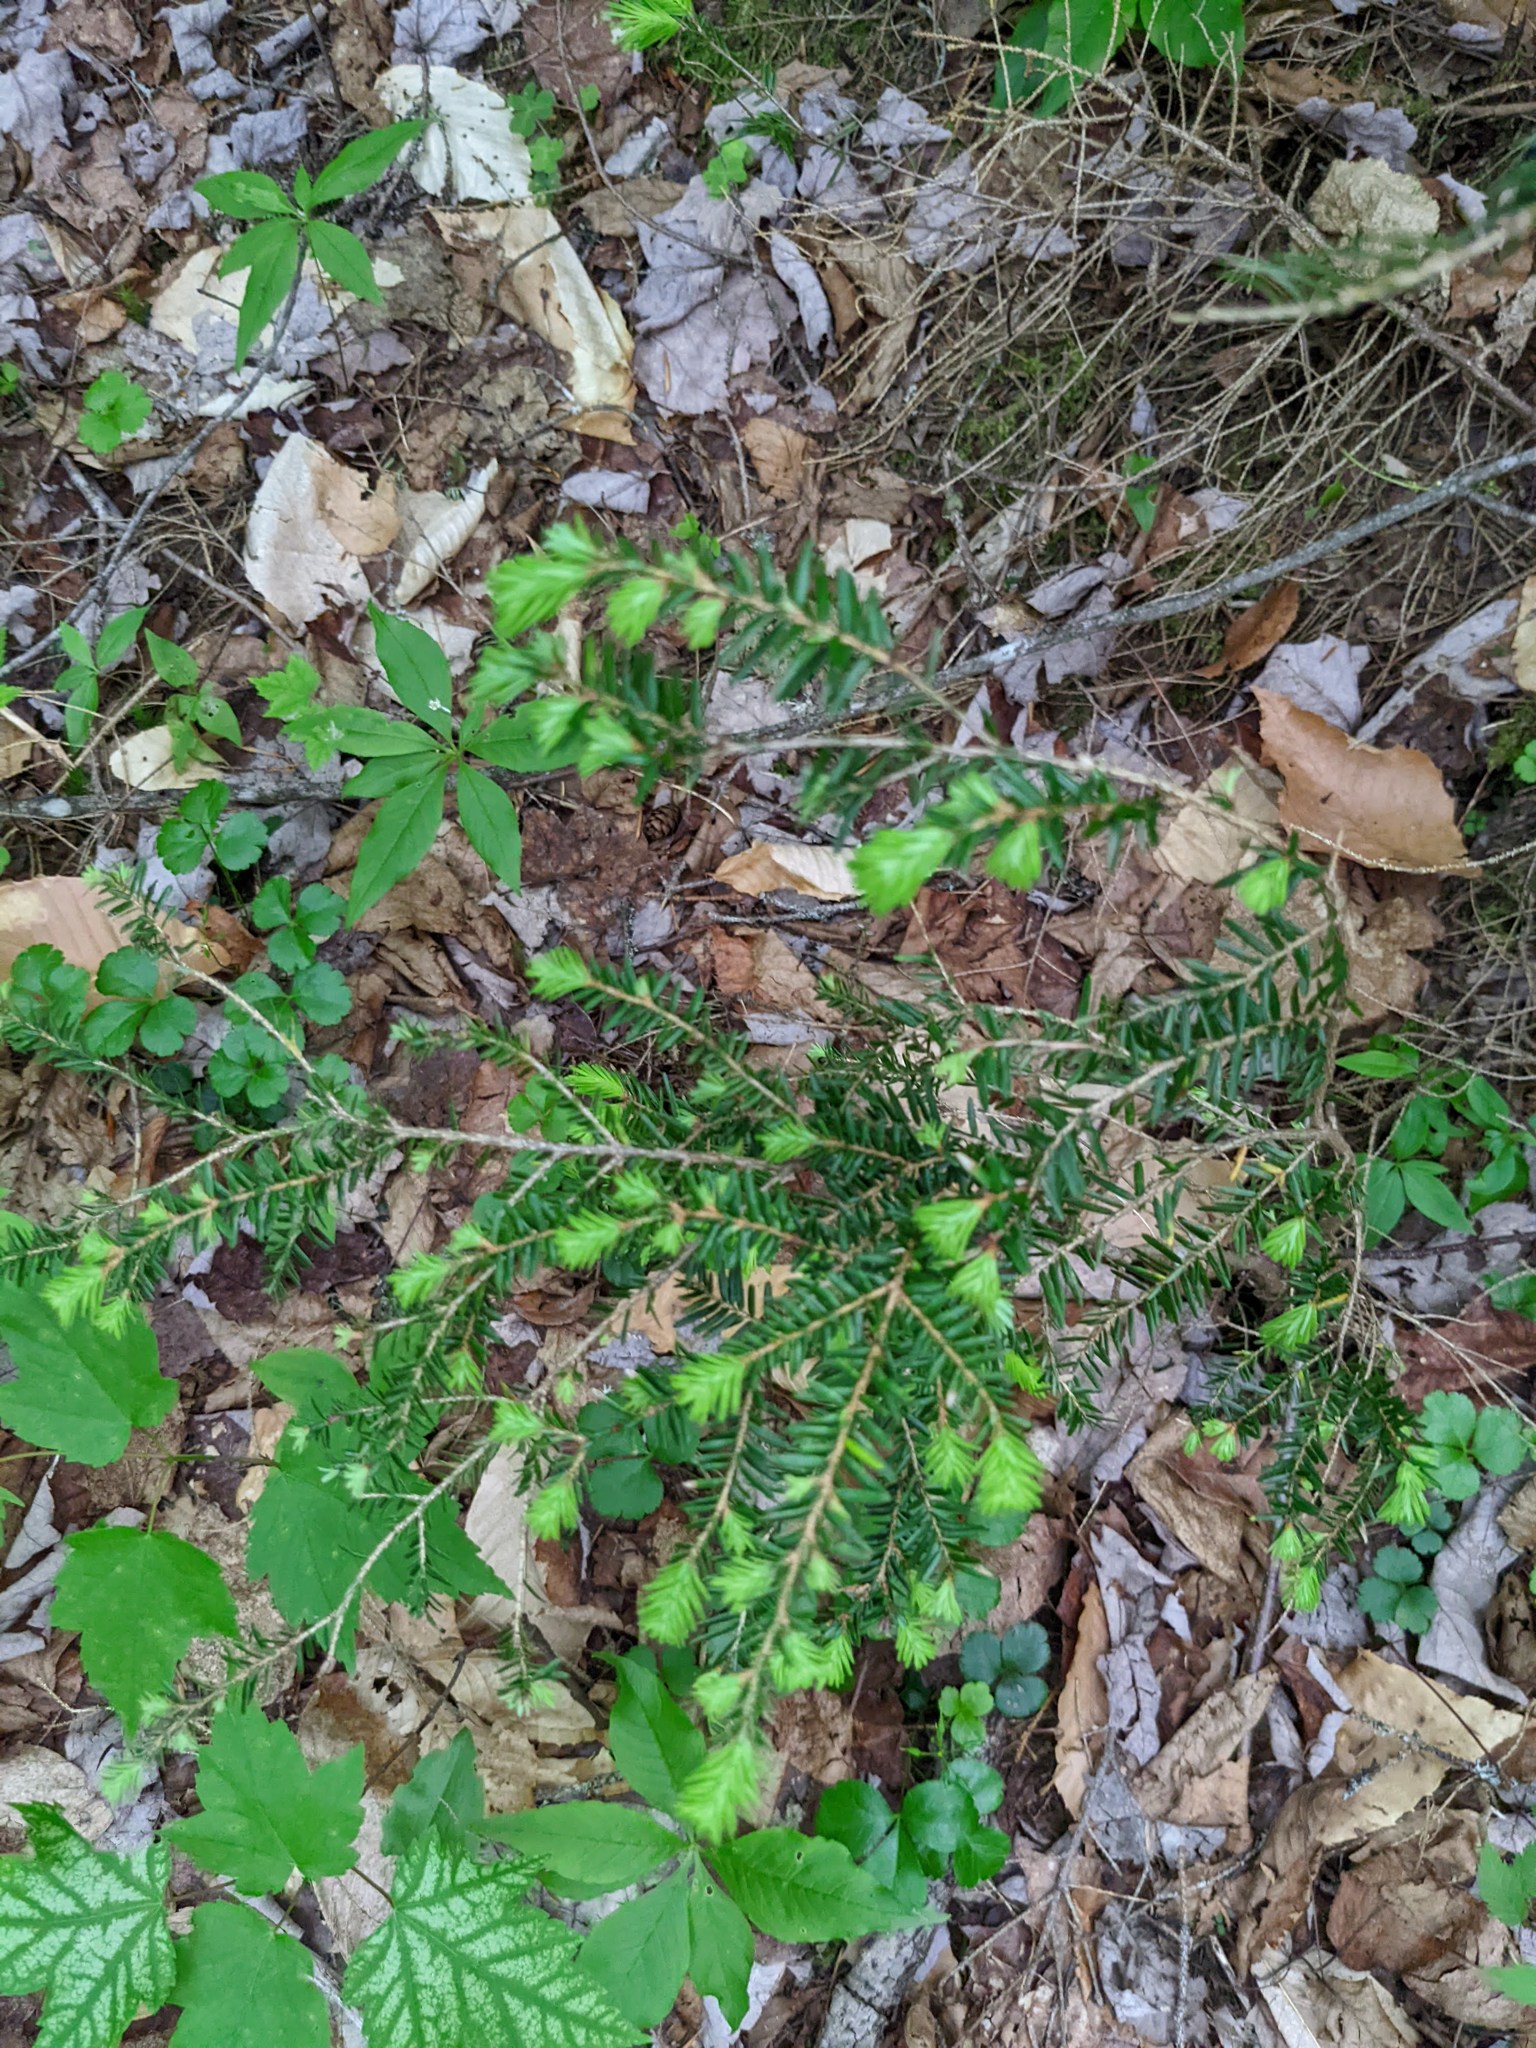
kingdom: Plantae
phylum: Tracheophyta
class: Pinopsida
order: Pinales
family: Pinaceae
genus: Tsuga
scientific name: Tsuga canadensis
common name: Eastern hemlock
